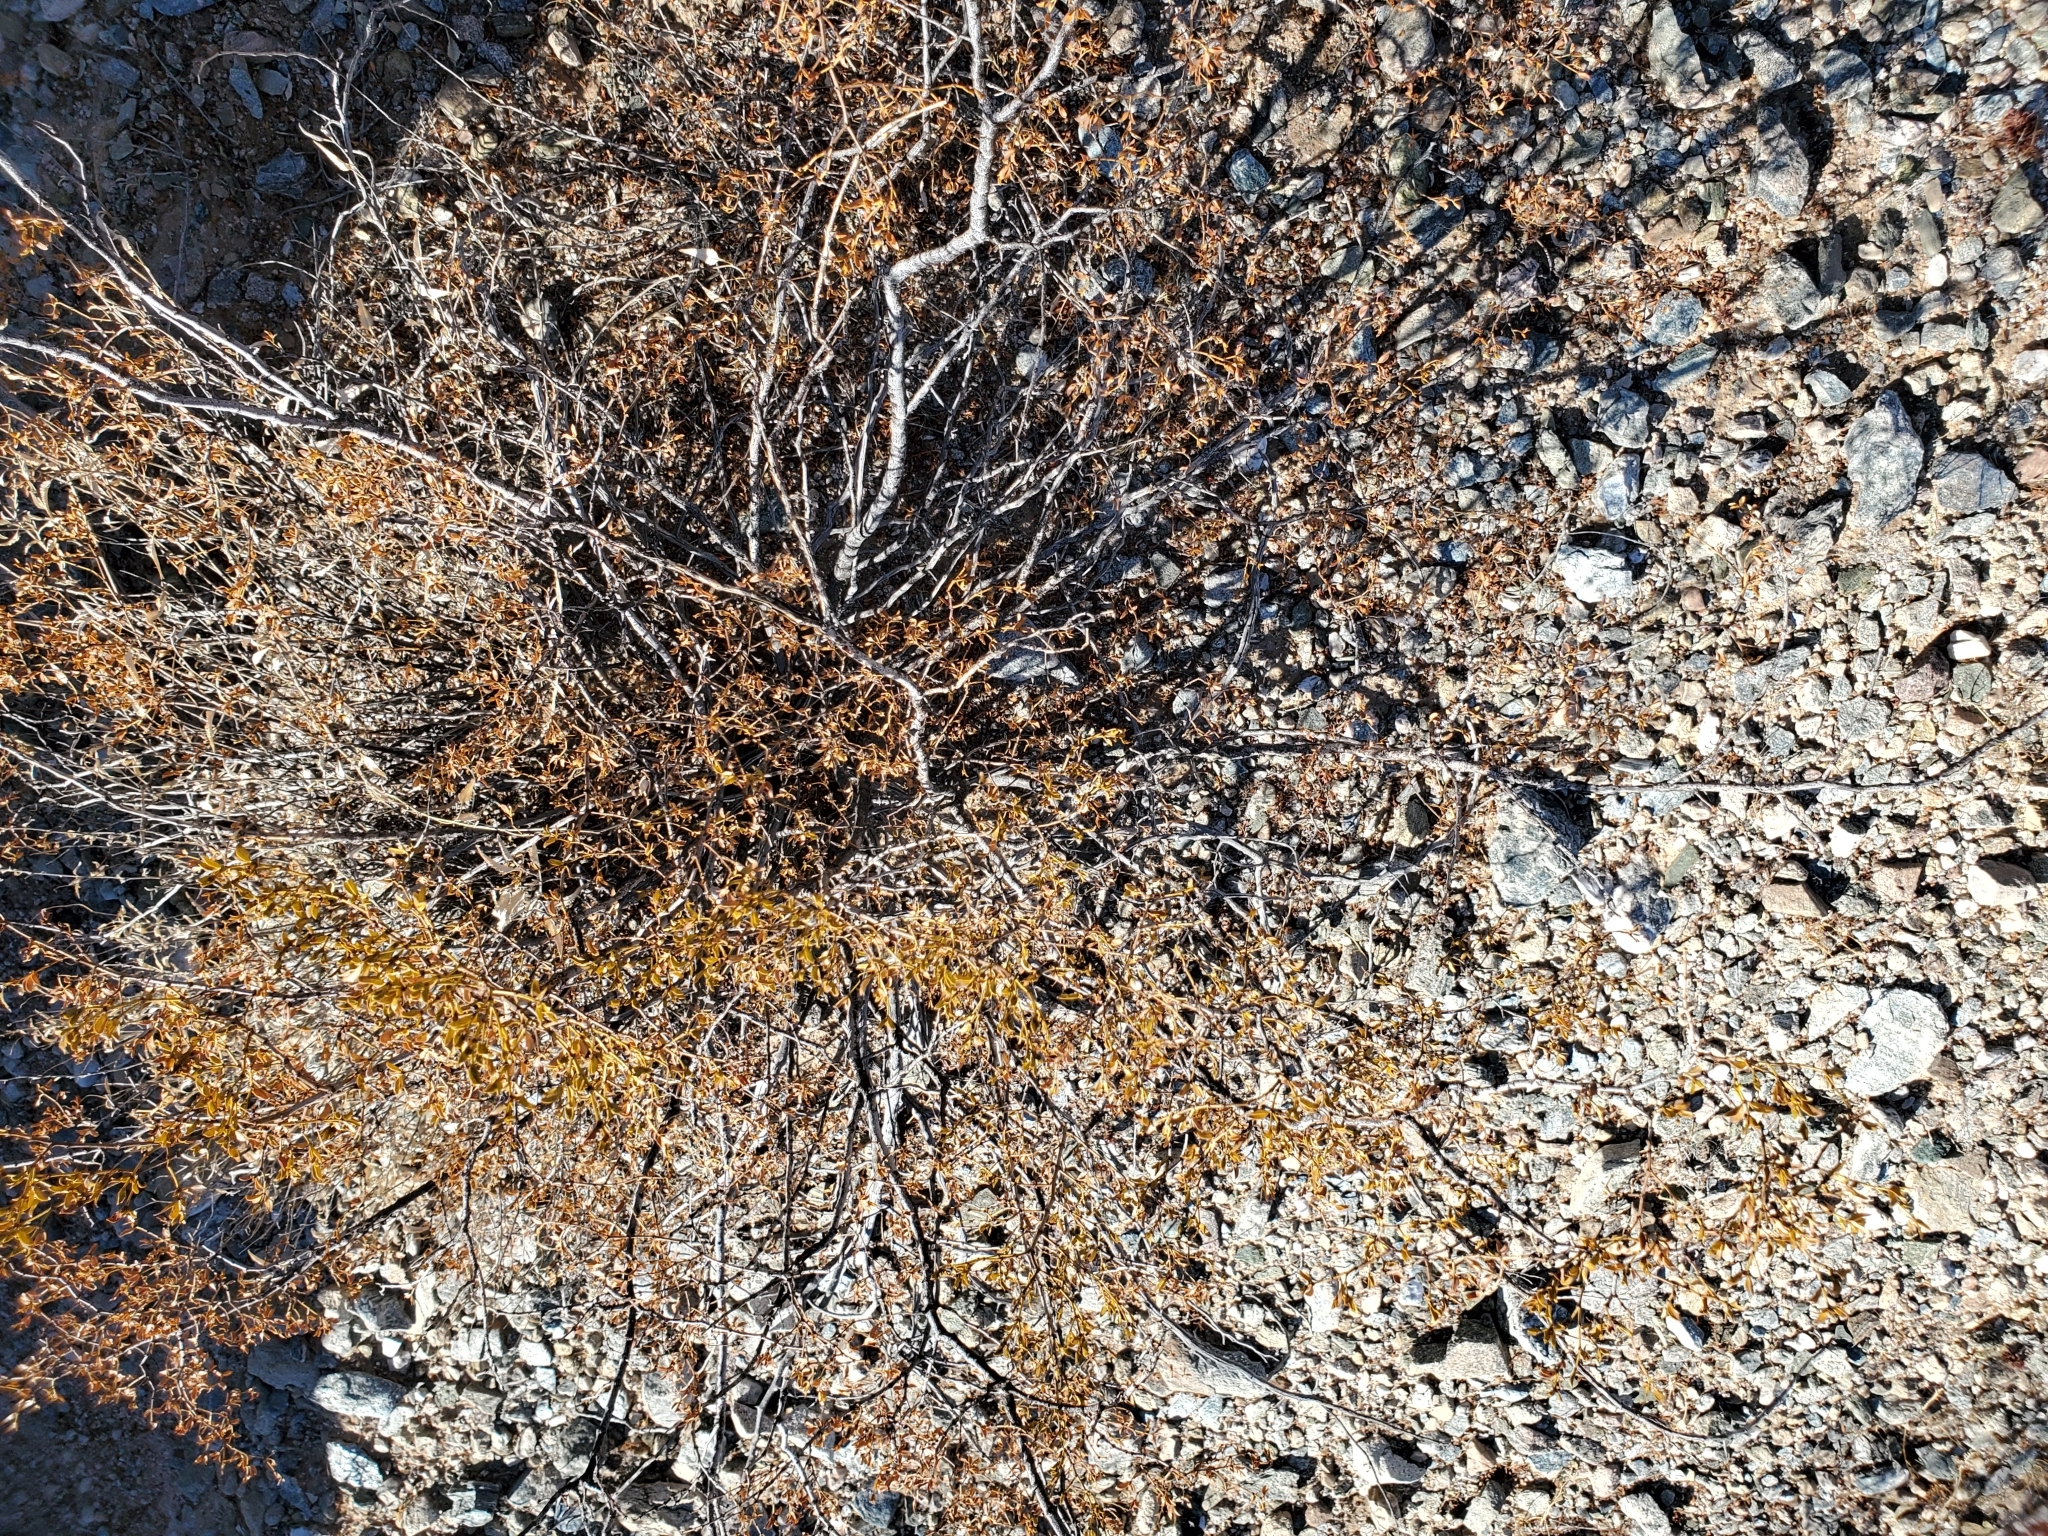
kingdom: Plantae
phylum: Tracheophyta
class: Magnoliopsida
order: Zygophyllales
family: Zygophyllaceae
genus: Larrea
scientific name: Larrea tridentata
